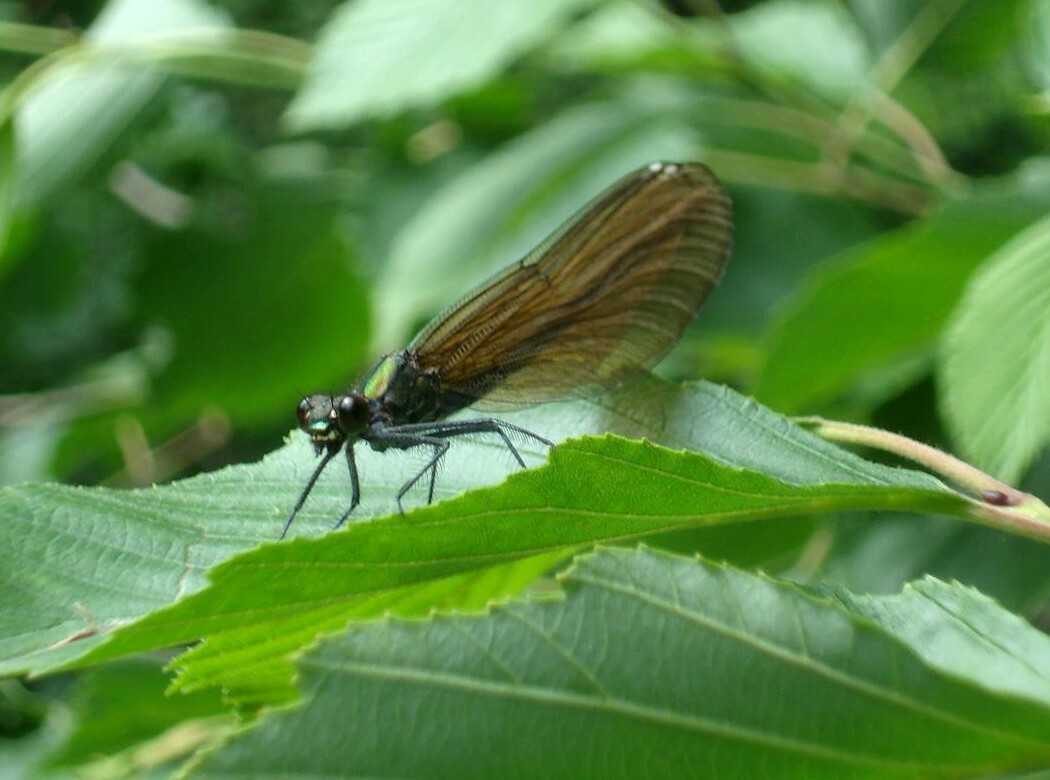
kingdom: Animalia
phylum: Arthropoda
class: Insecta
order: Odonata
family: Calopterygidae
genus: Calopteryx
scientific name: Calopteryx virgo
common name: Beautiful demoiselle
